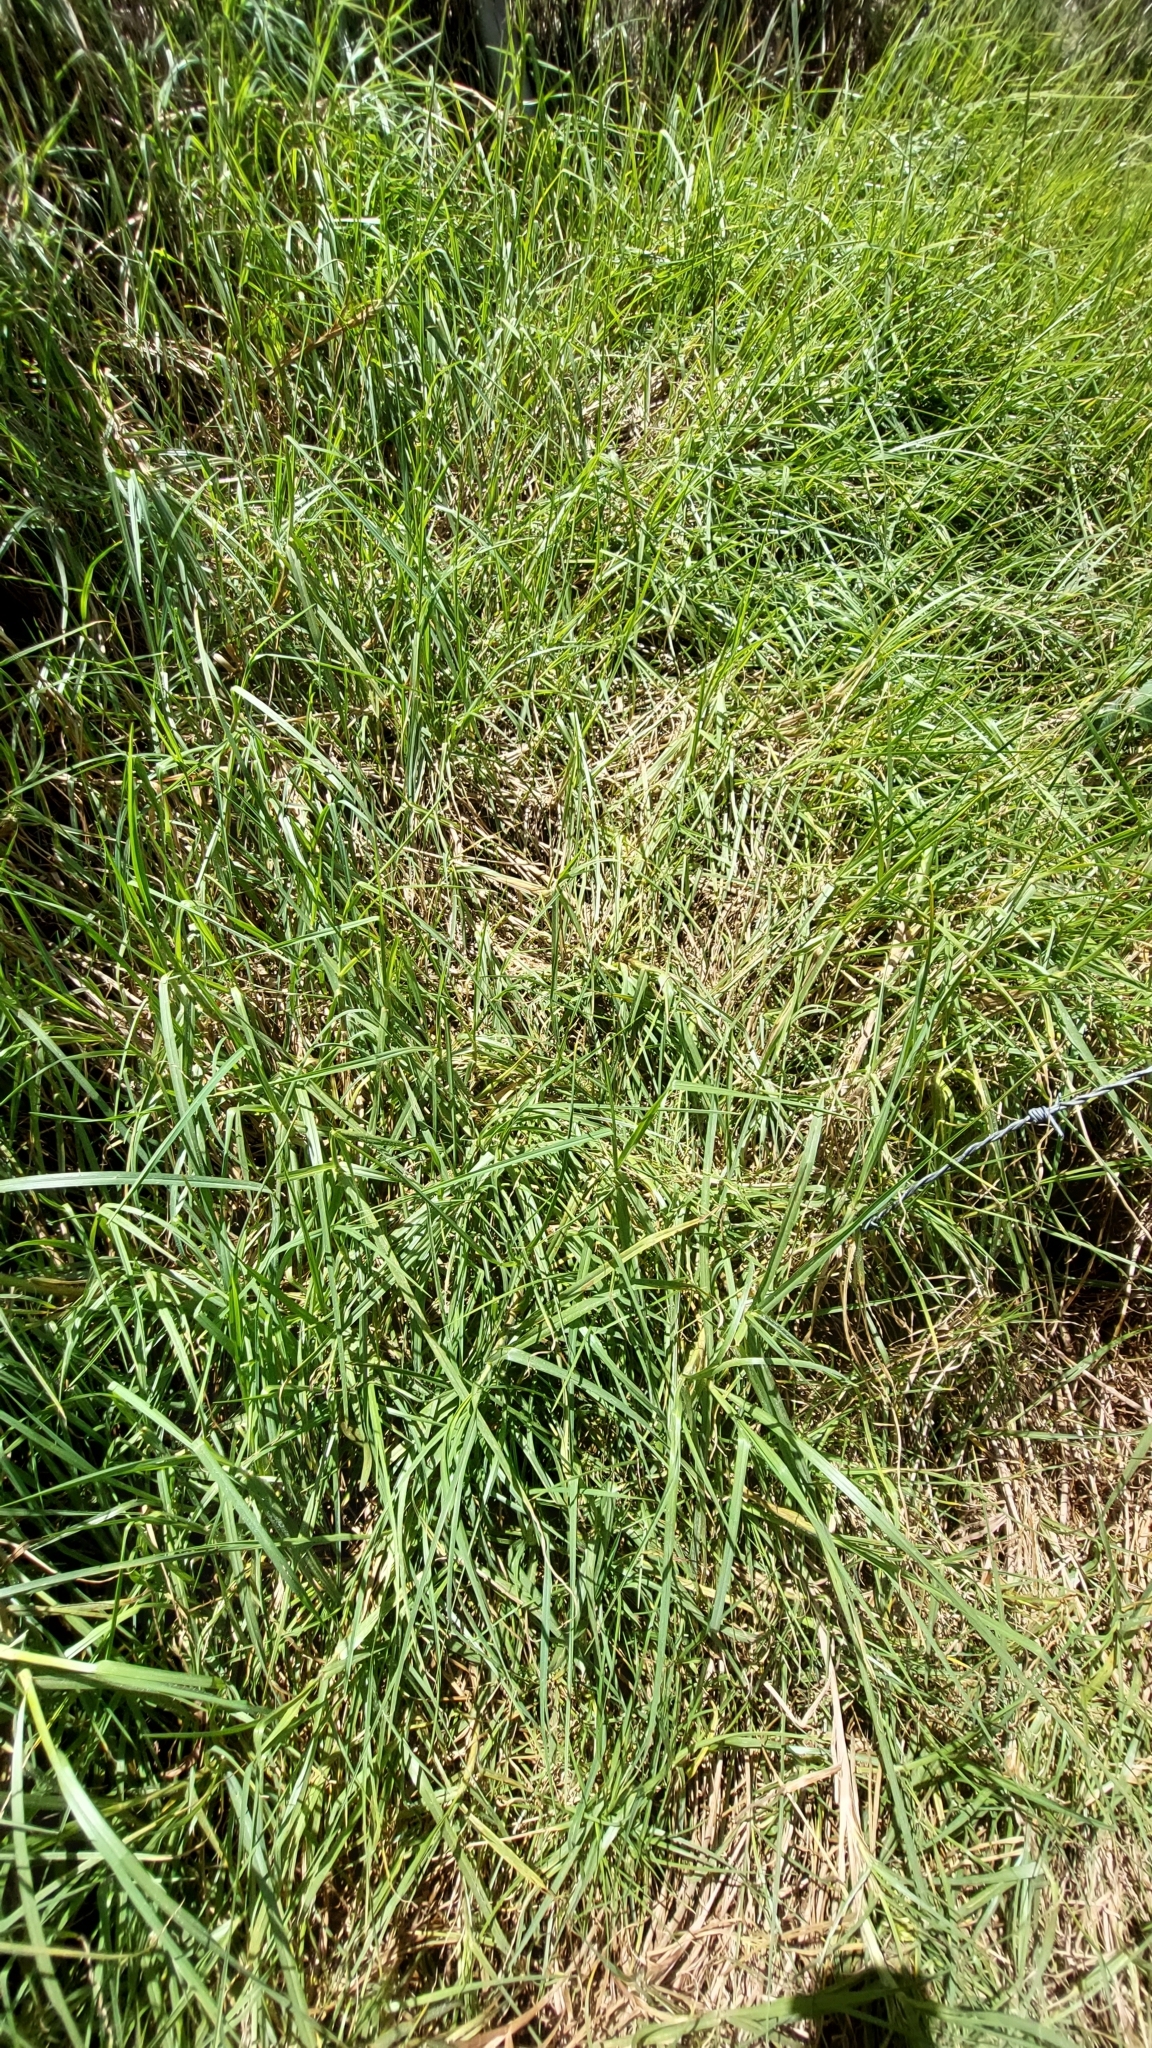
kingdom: Plantae
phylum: Tracheophyta
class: Liliopsida
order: Poales
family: Poaceae
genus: Cenchrus
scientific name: Cenchrus clandestinus
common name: Kikuyugrass
